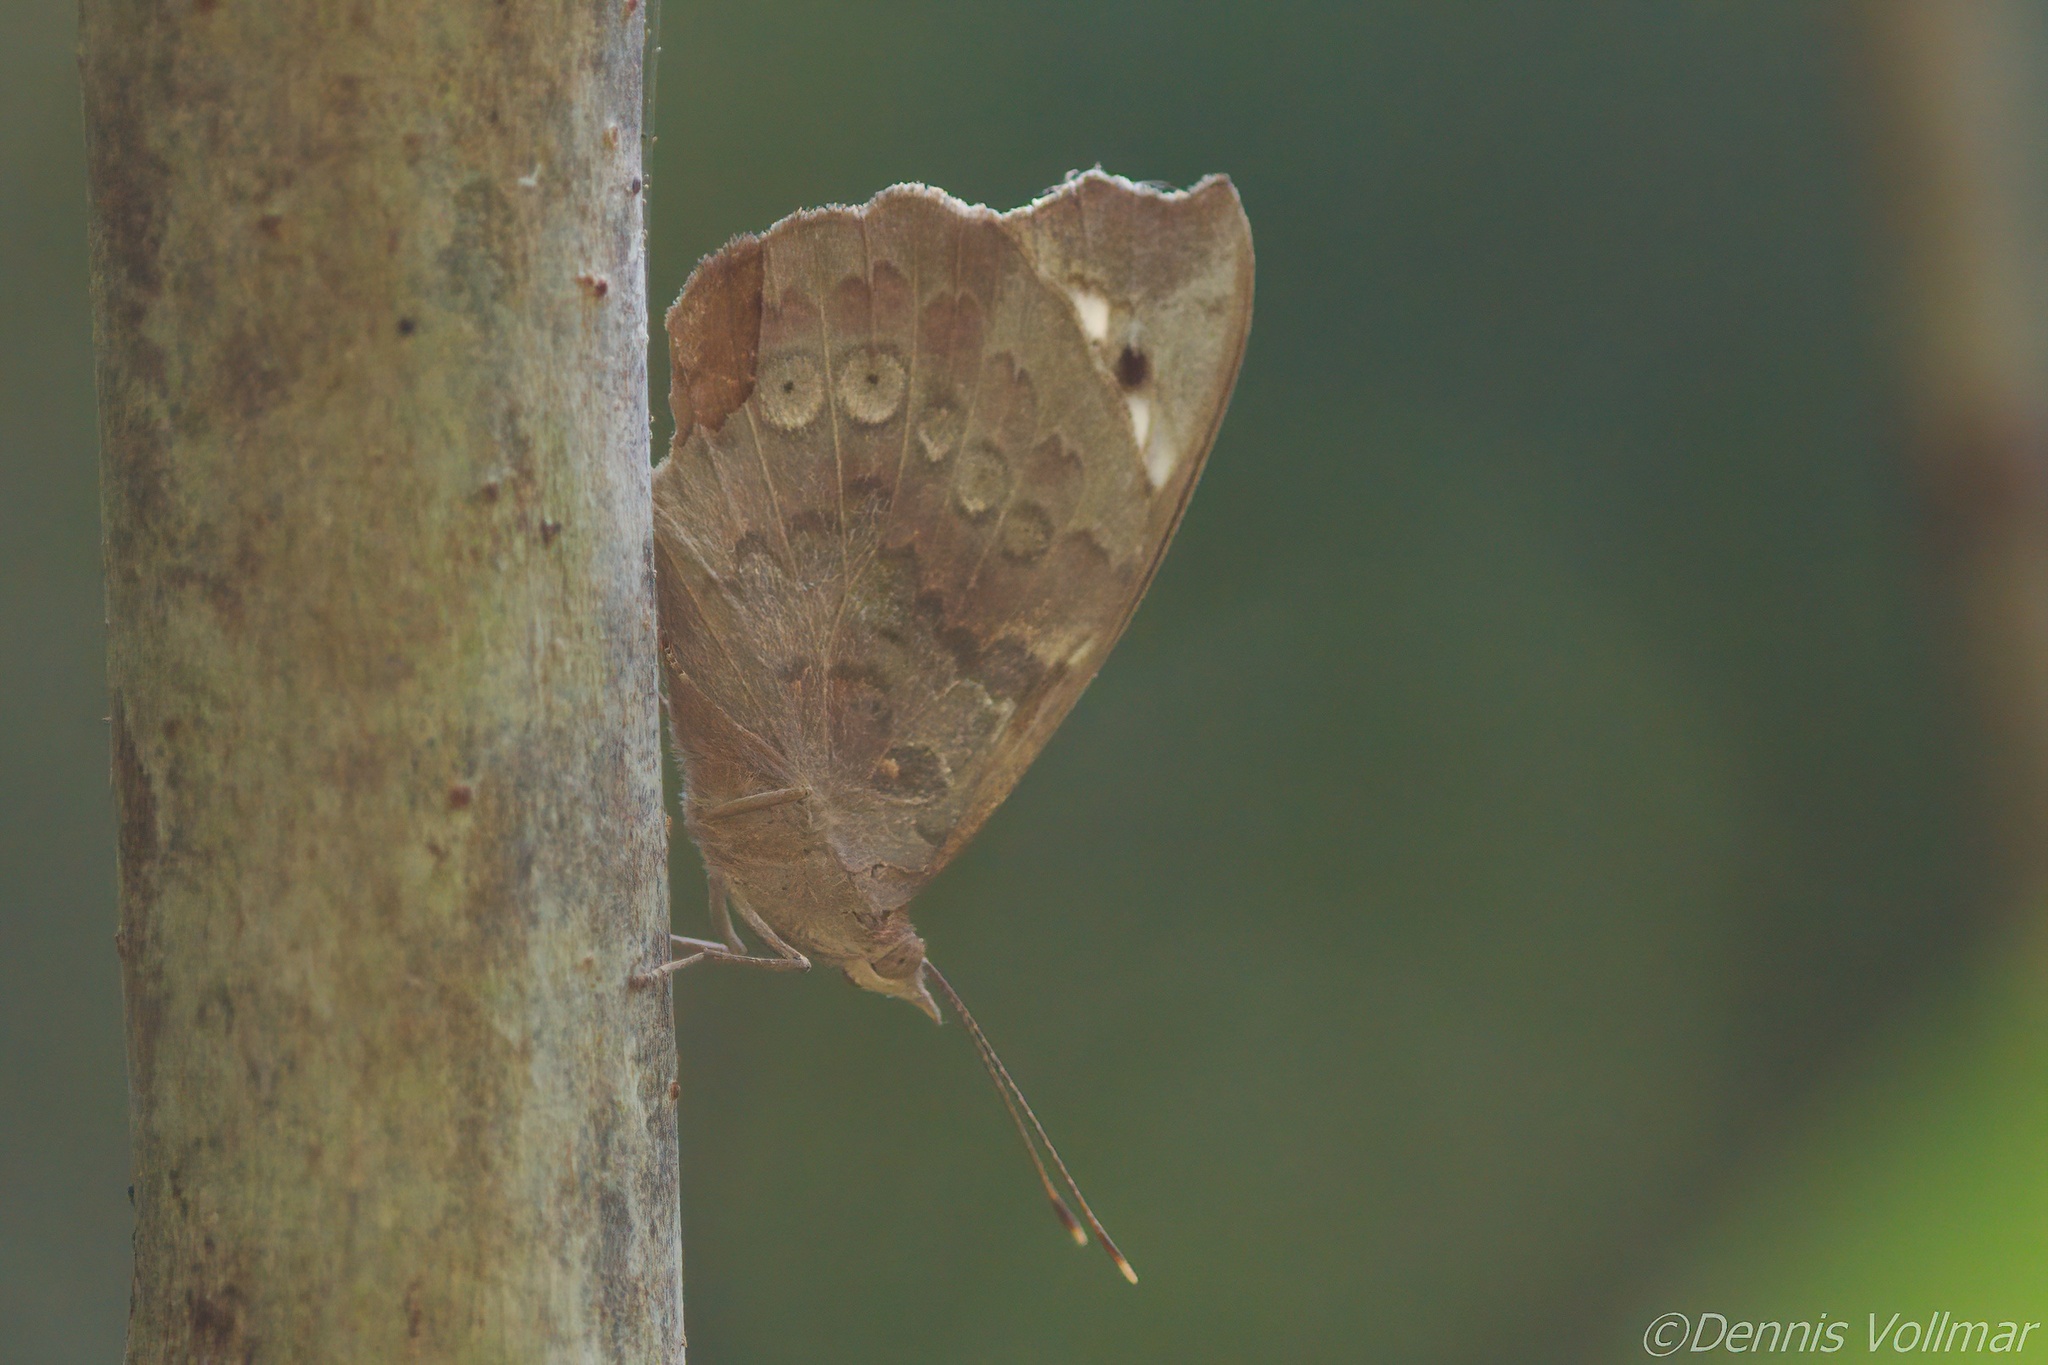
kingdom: Animalia
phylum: Arthropoda
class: Insecta
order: Lepidoptera
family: Nymphalidae
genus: Eunica
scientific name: Eunica tatila
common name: Florida purplewing
